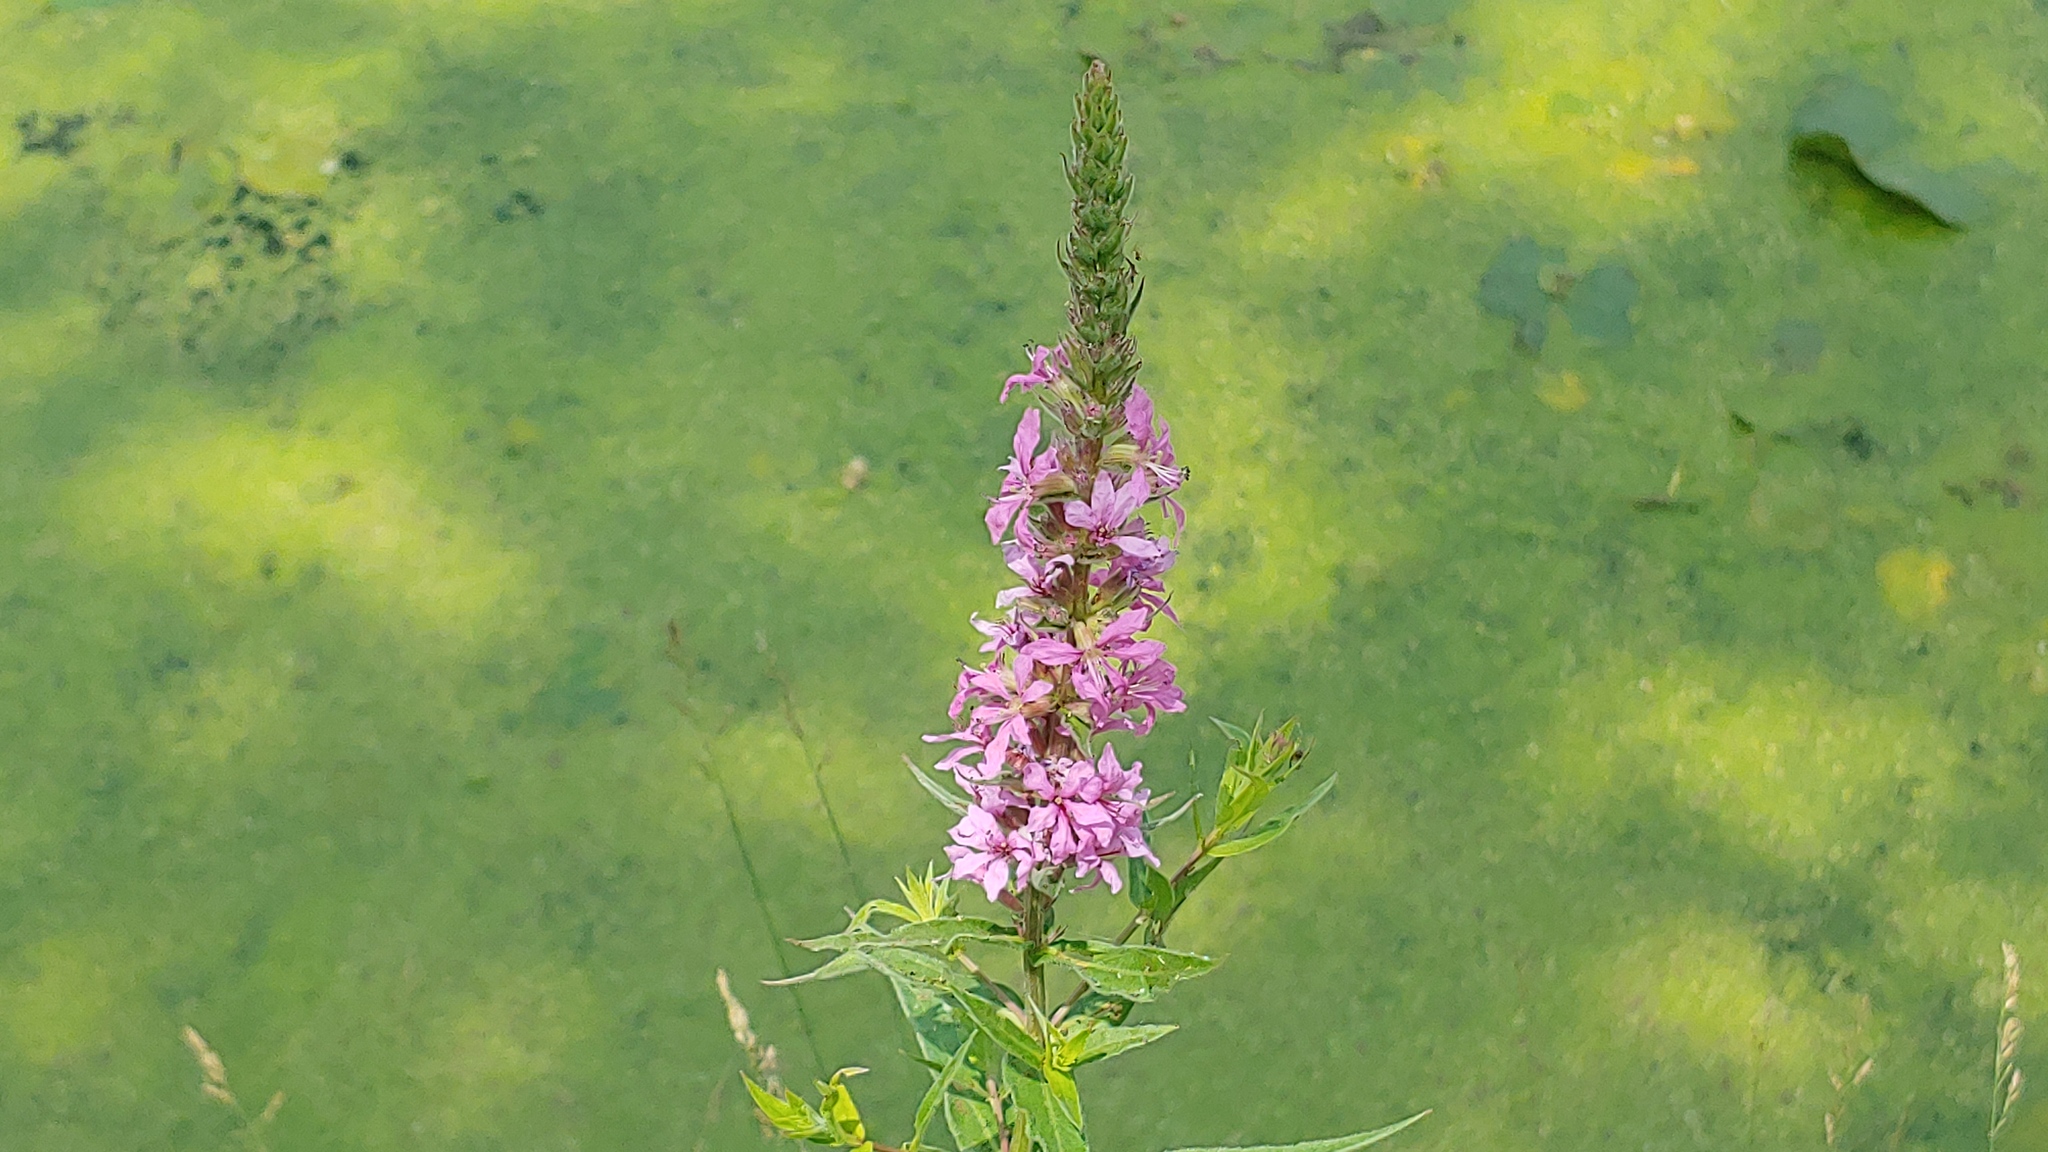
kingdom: Plantae
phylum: Tracheophyta
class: Magnoliopsida
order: Myrtales
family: Lythraceae
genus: Lythrum
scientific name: Lythrum salicaria
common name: Purple loosestrife
